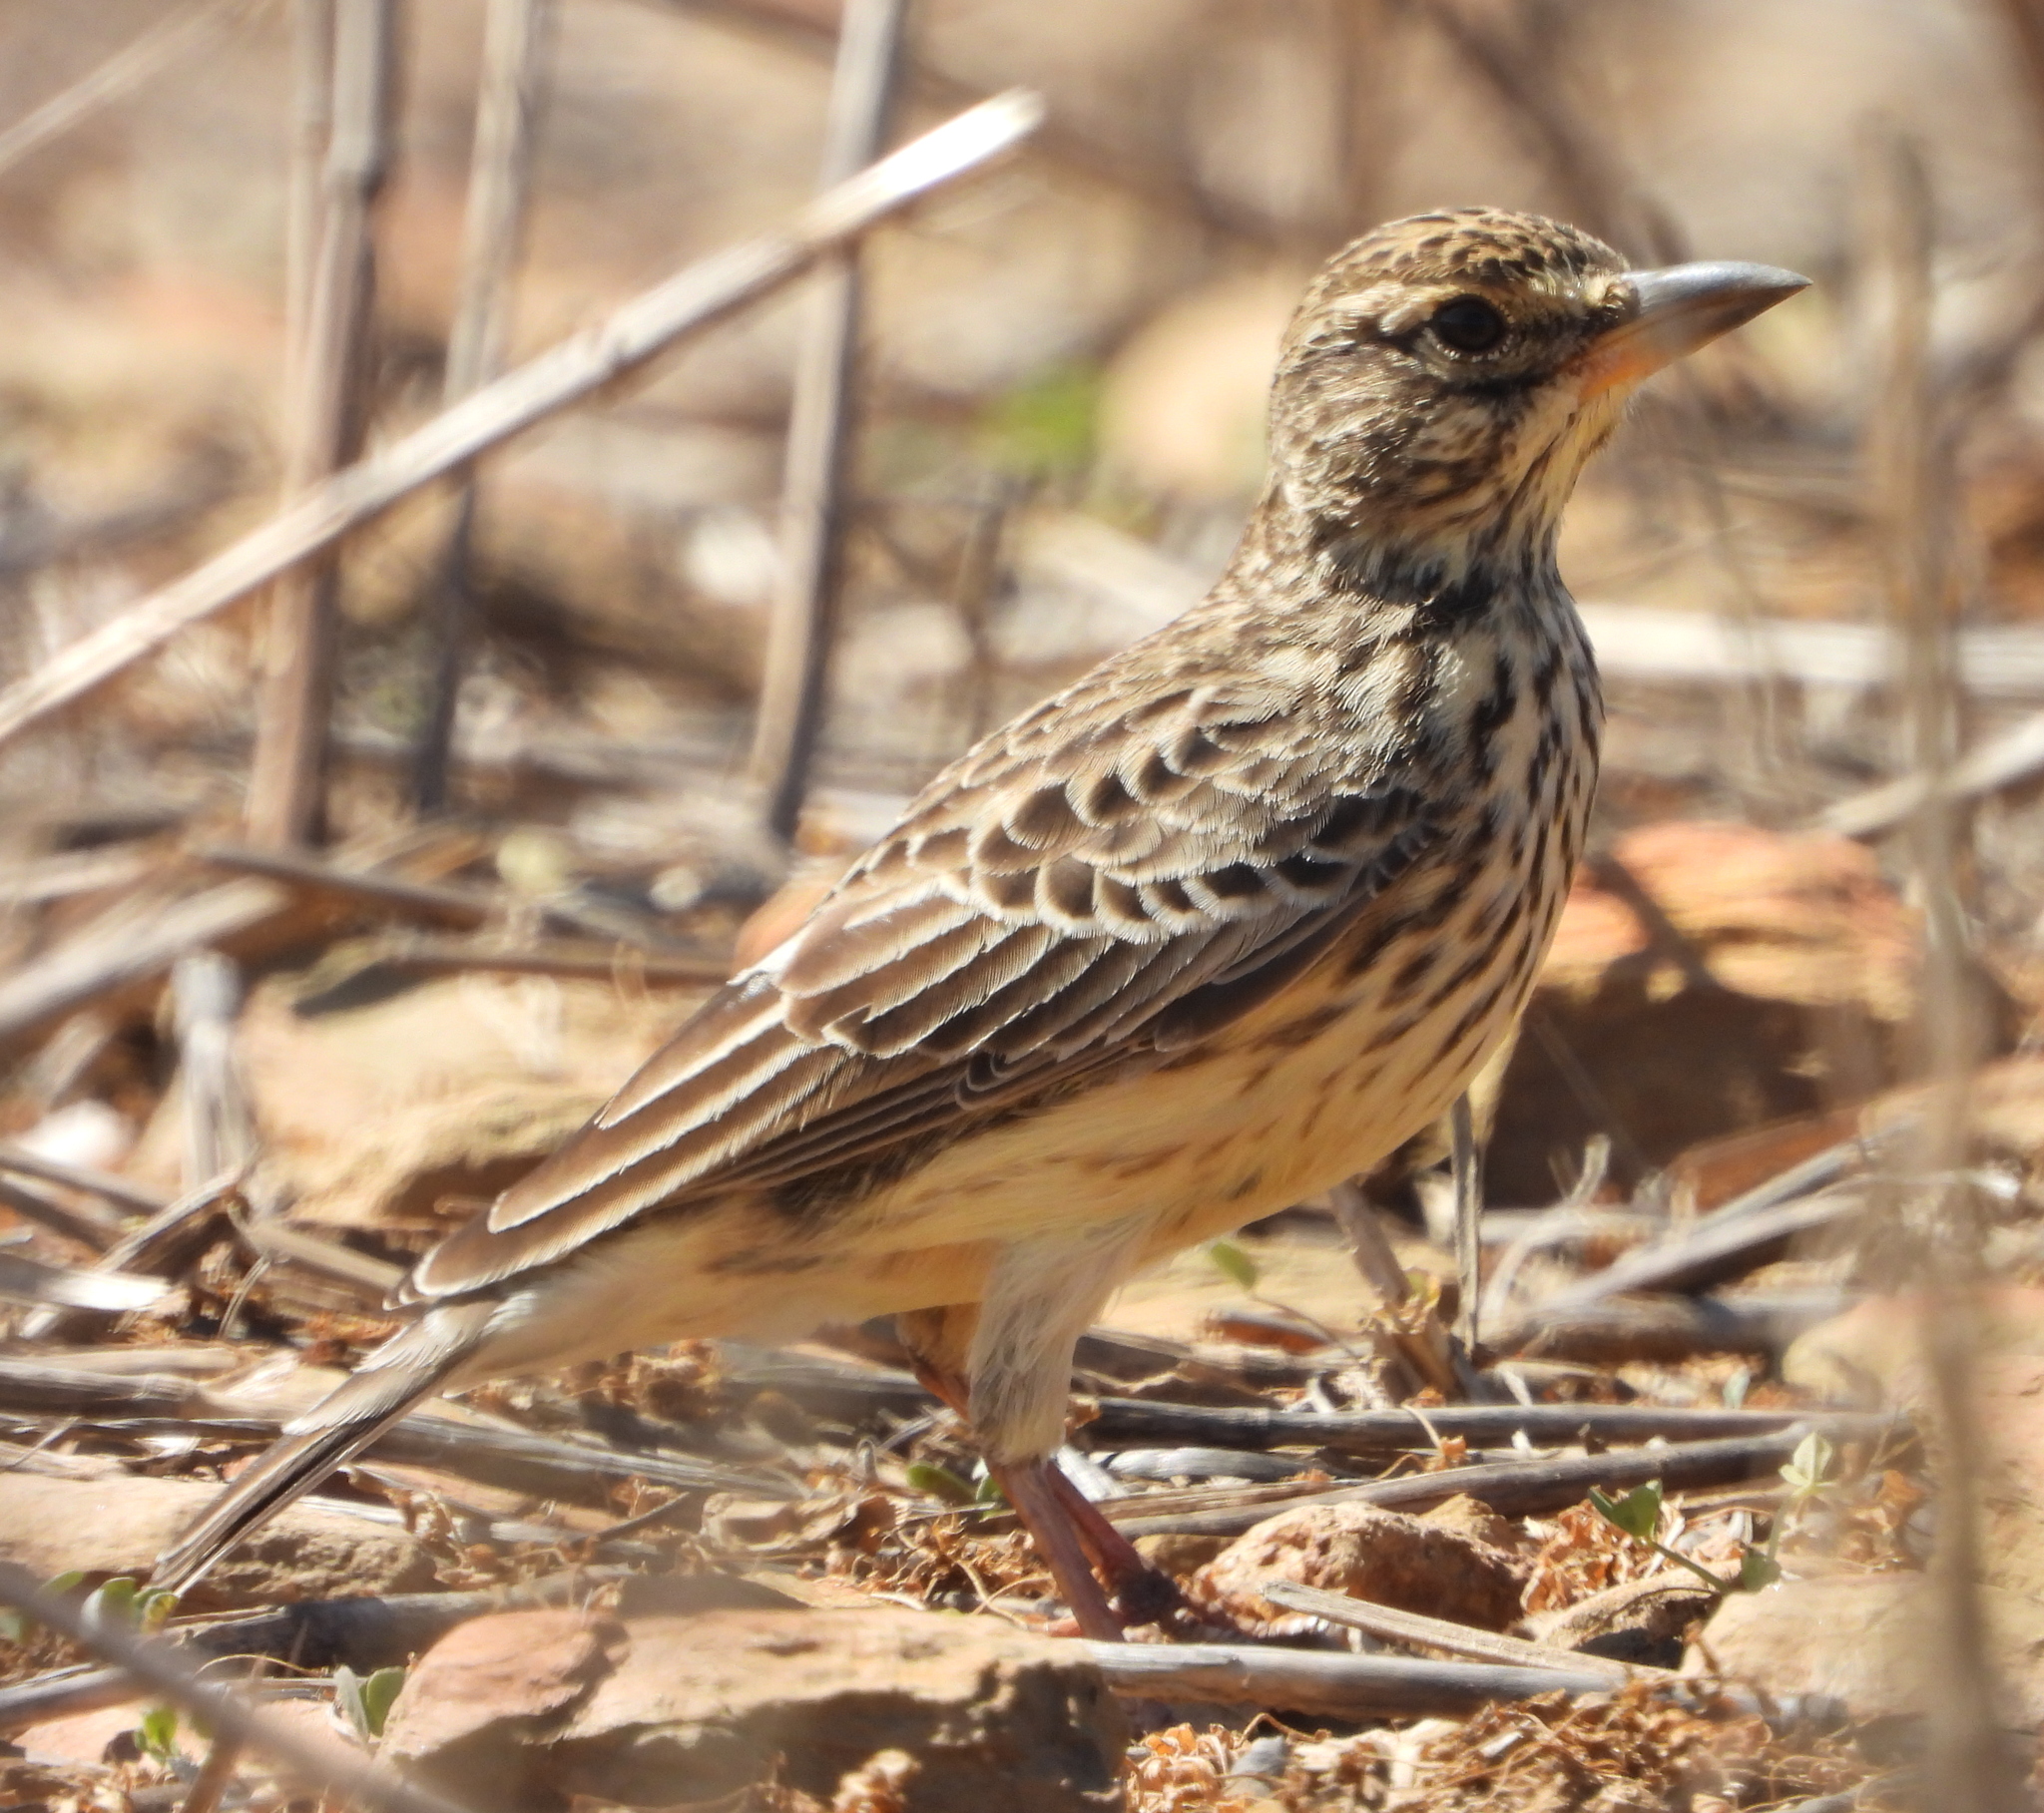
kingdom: Animalia
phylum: Chordata
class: Aves
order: Passeriformes
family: Alaudidae
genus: Galerida
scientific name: Galerida magnirostris
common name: Large-billed lark
